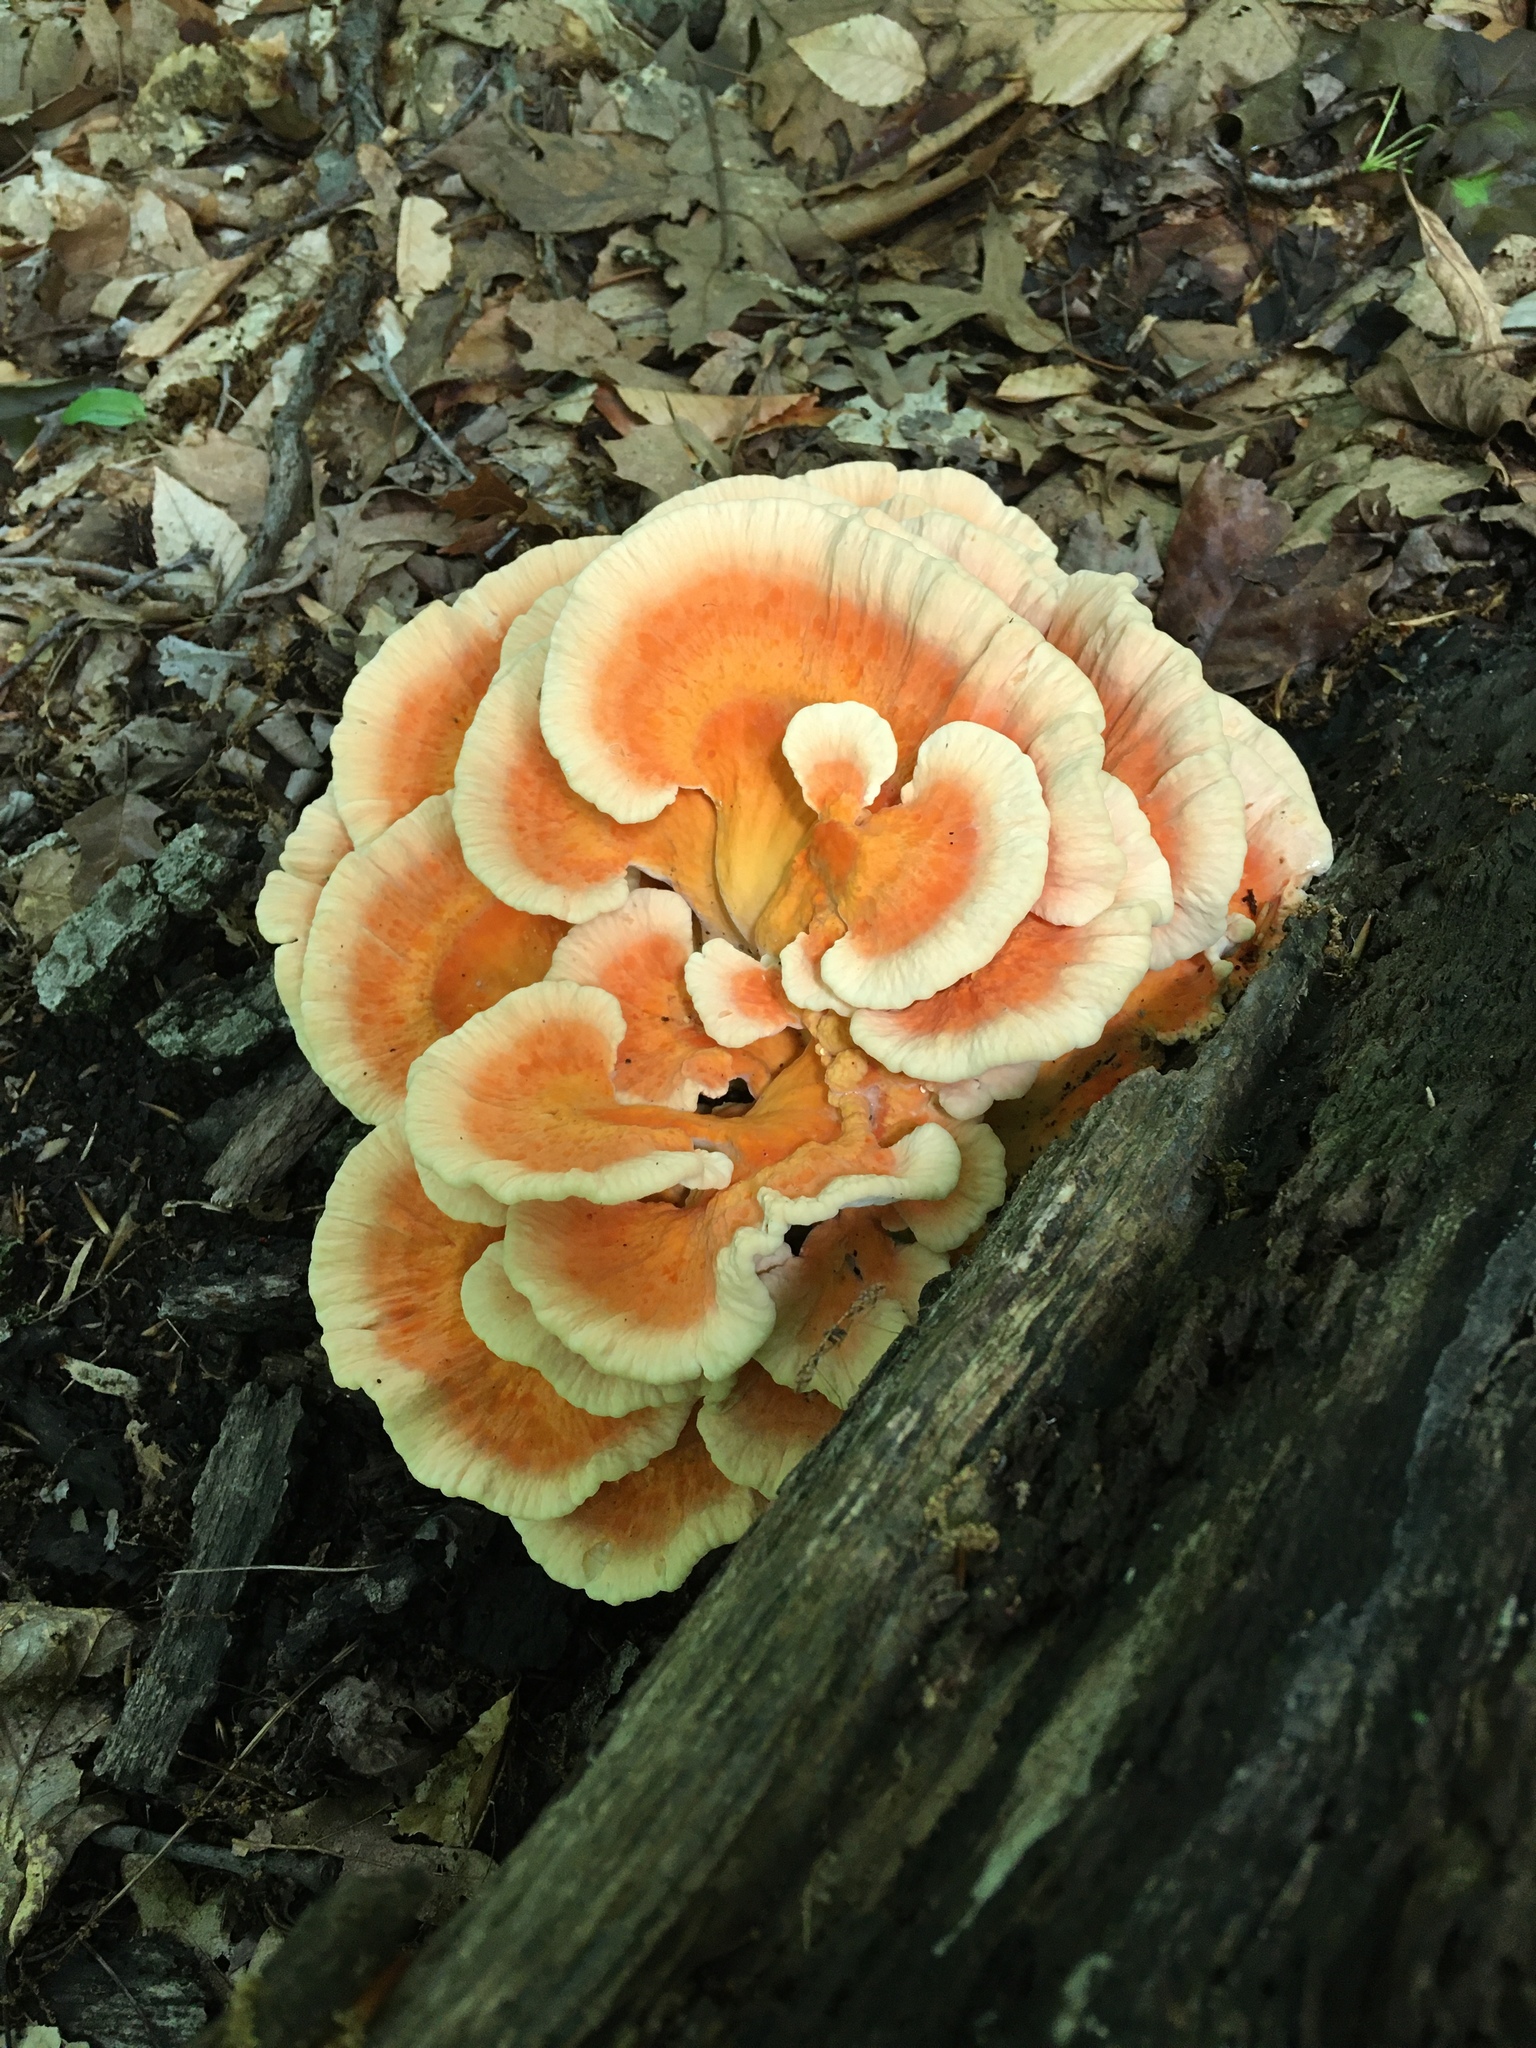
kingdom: Fungi
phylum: Basidiomycota
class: Agaricomycetes
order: Polyporales
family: Laetiporaceae
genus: Laetiporus
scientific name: Laetiporus sulphureus
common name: Chicken of the woods
